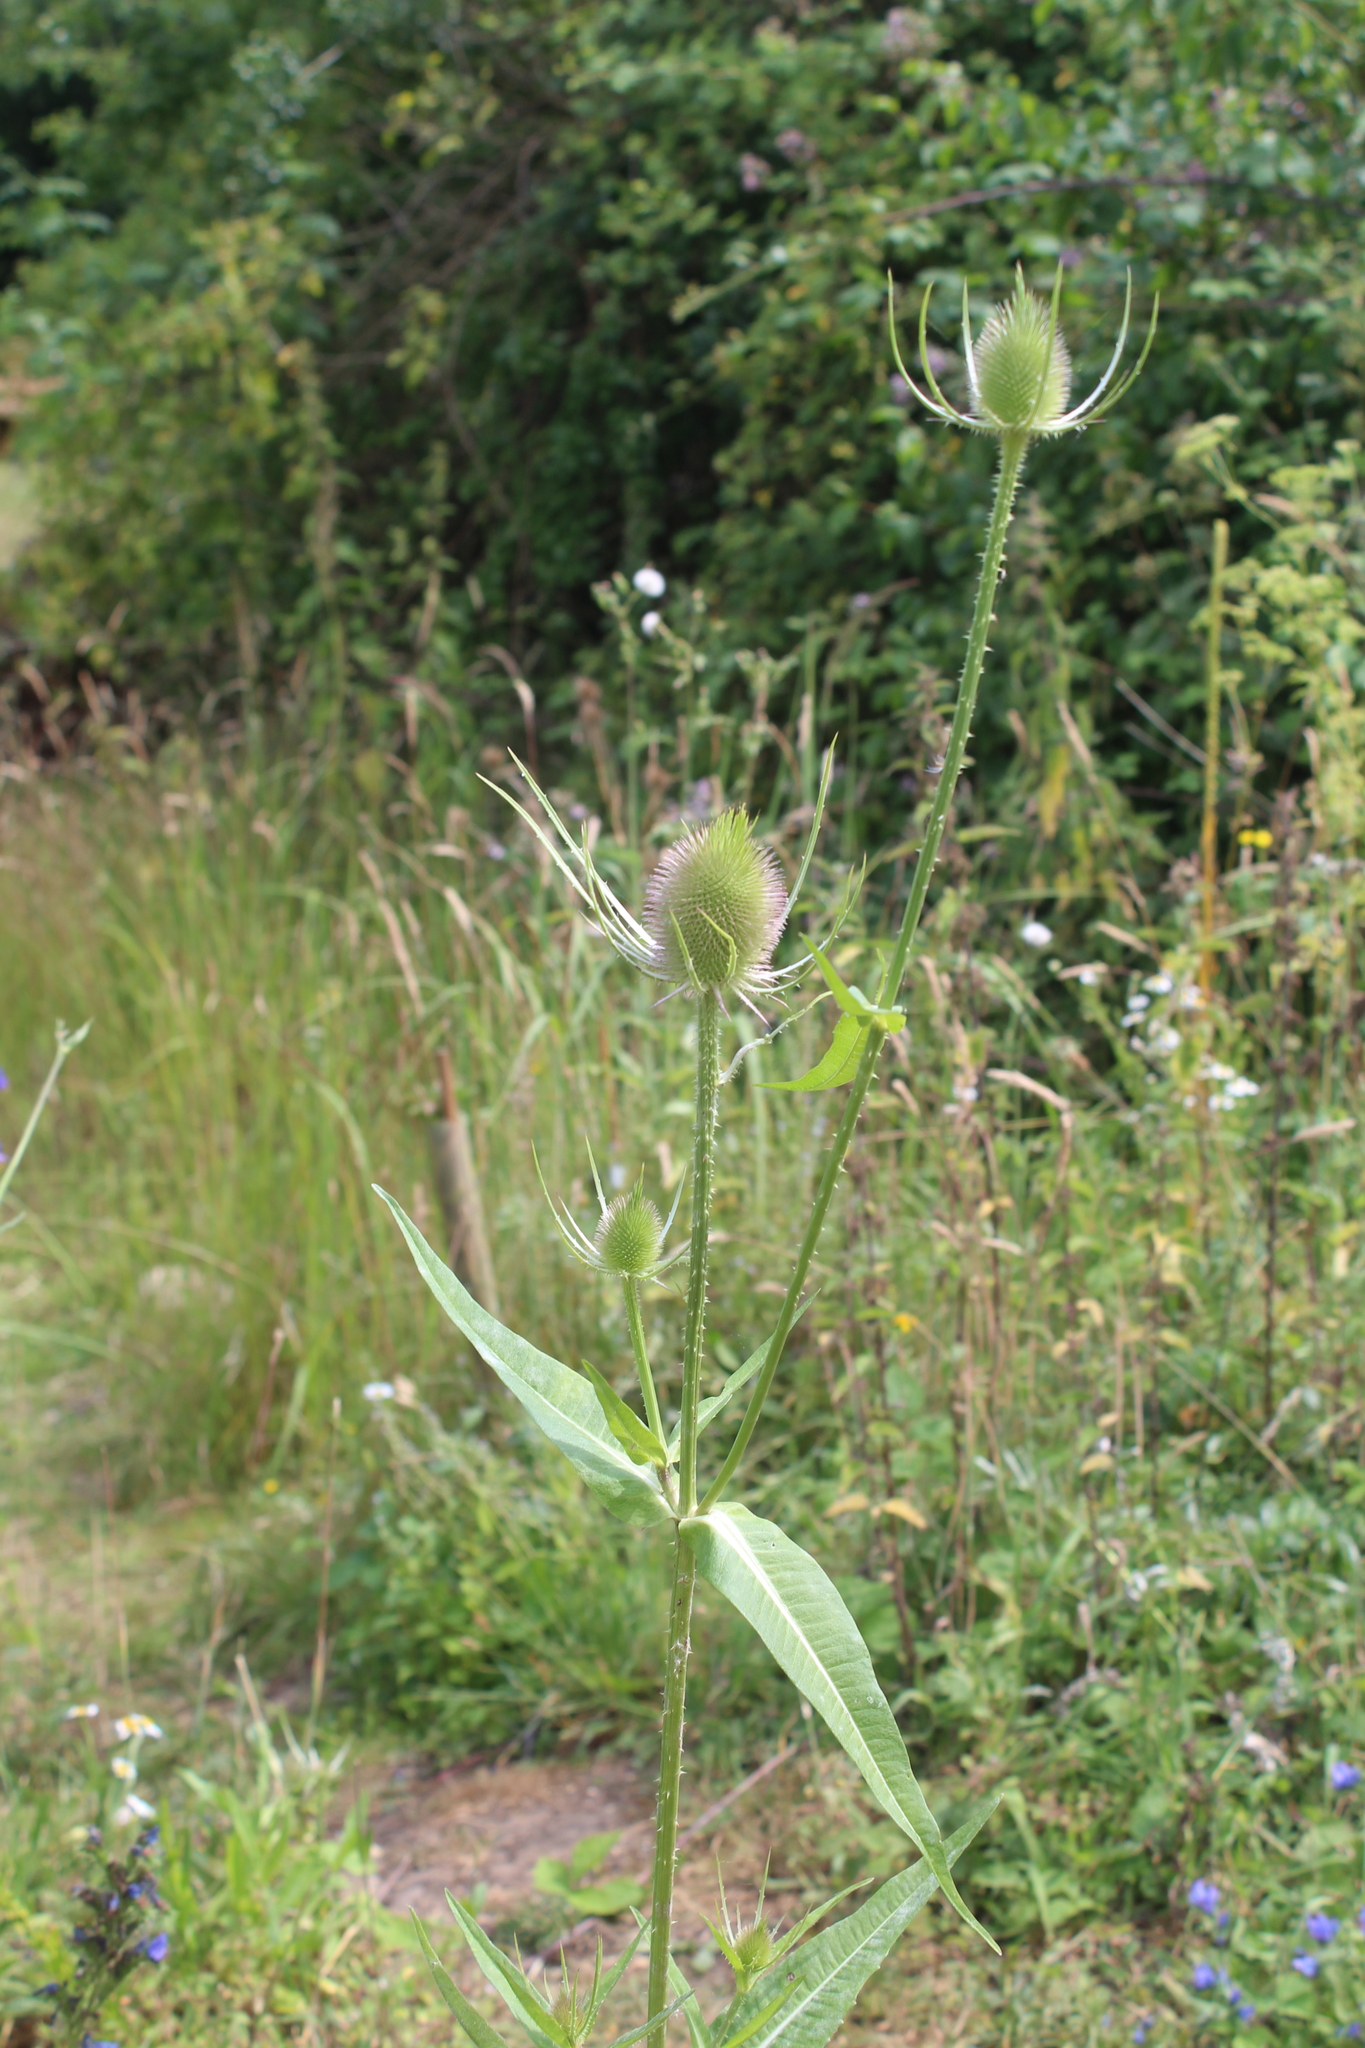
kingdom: Plantae
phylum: Tracheophyta
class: Magnoliopsida
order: Dipsacales
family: Caprifoliaceae
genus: Dipsacus
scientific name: Dipsacus fullonum
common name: Teasel
